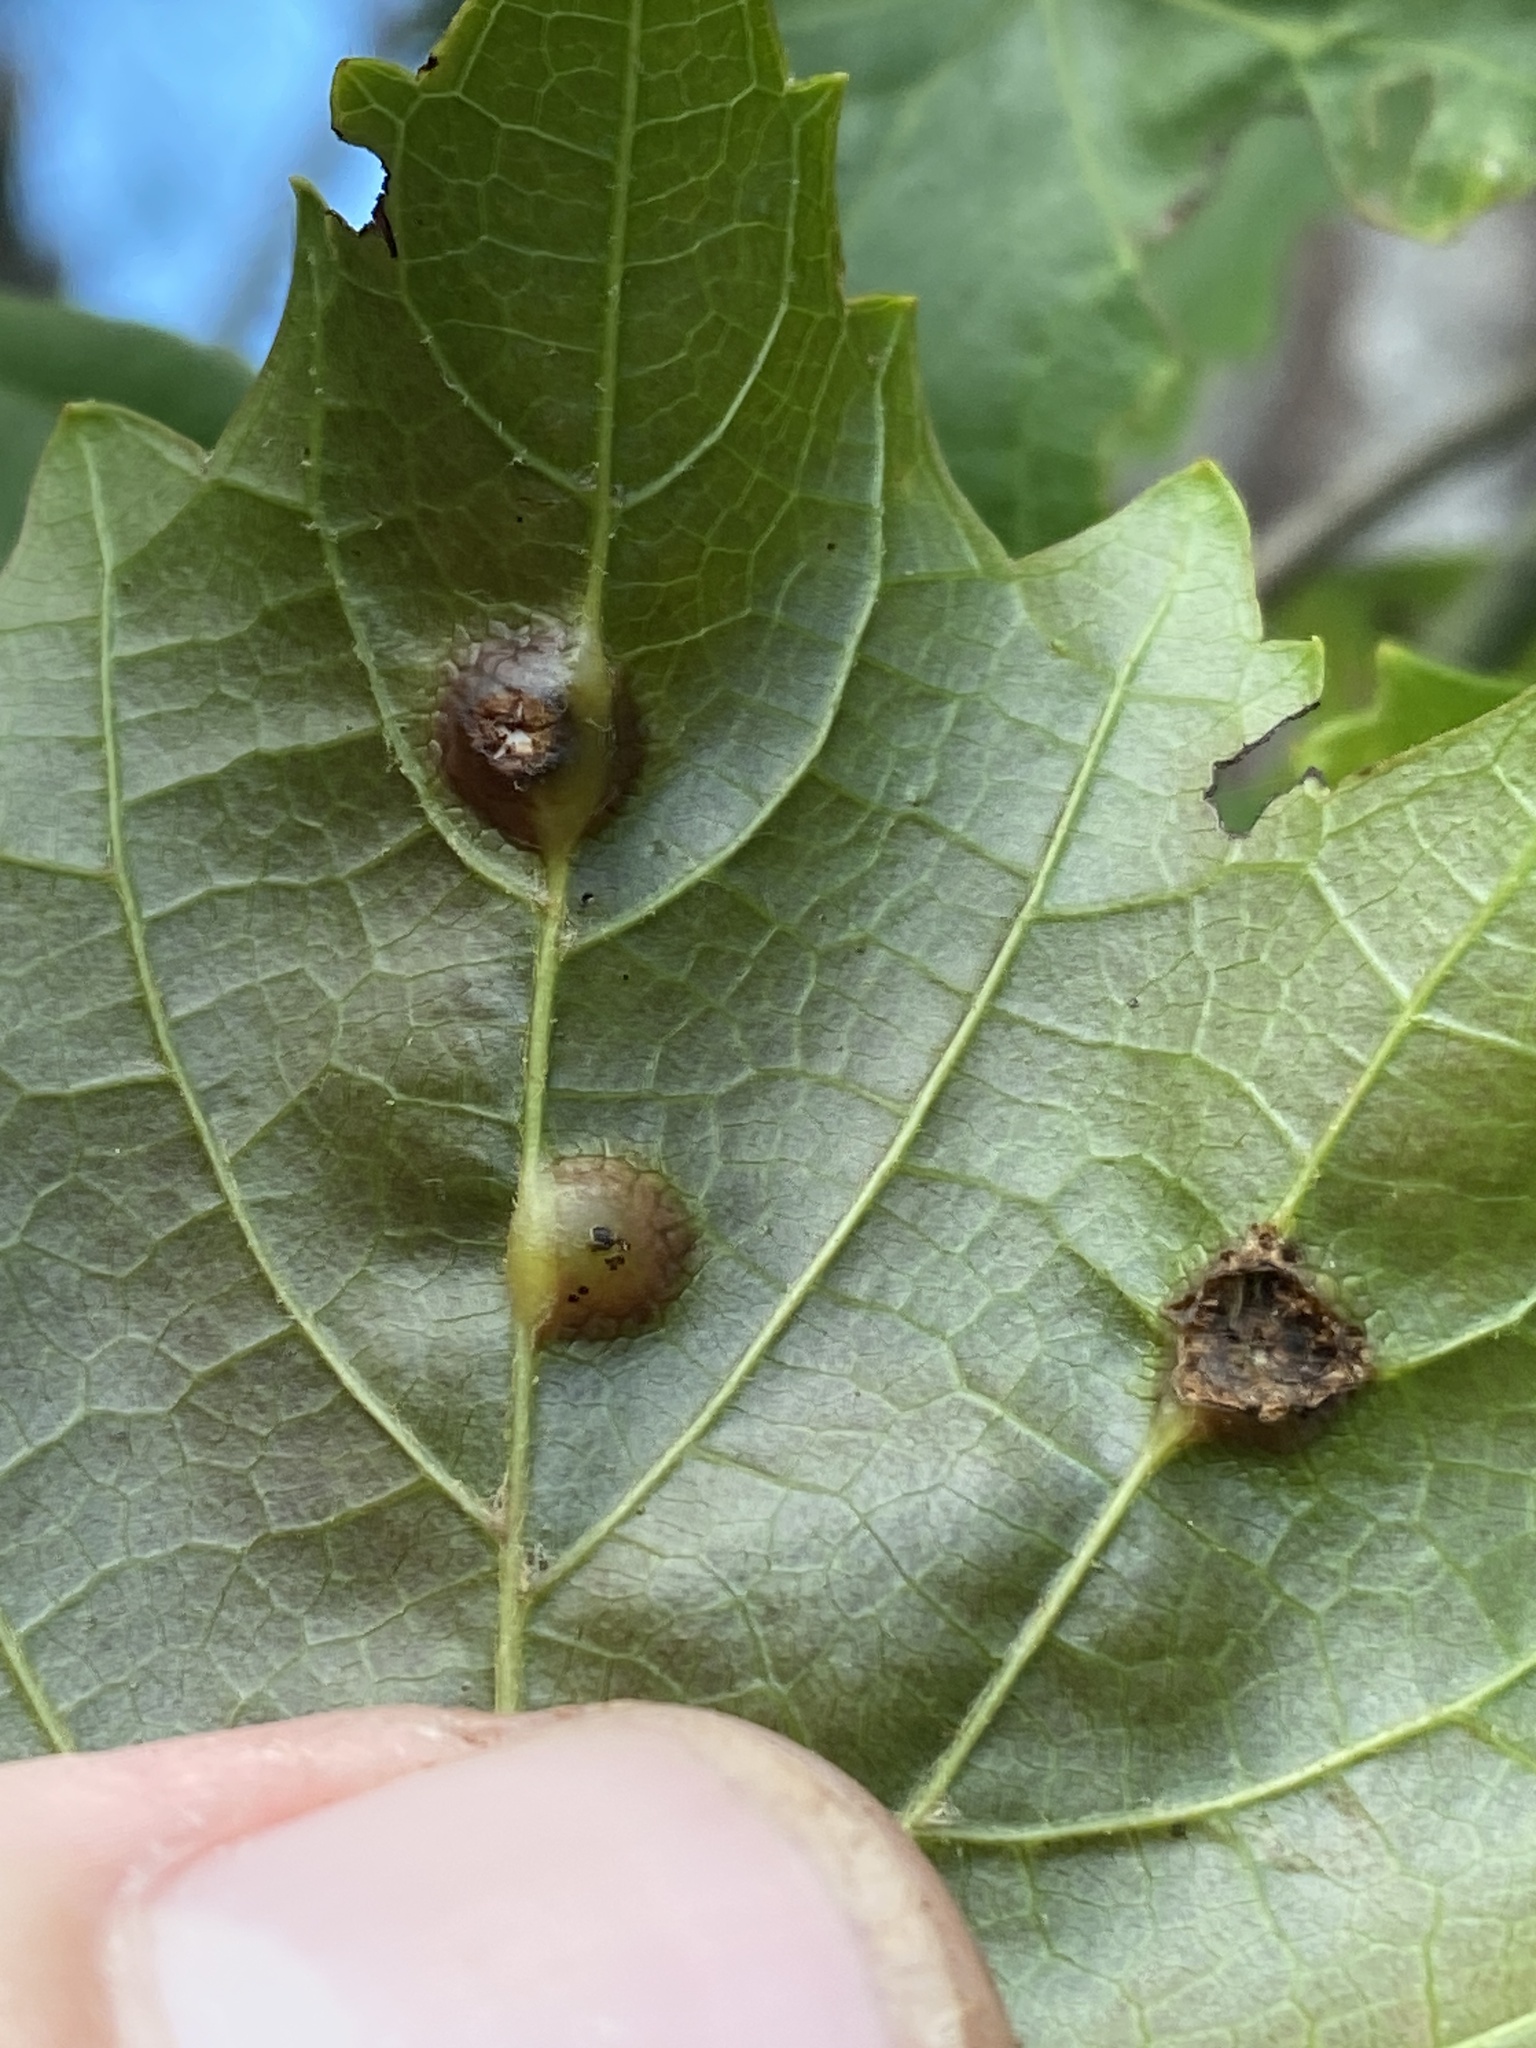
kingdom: Animalia
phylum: Arthropoda
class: Insecta
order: Diptera
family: Cecidomyiidae
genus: Vitisiella
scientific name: Vitisiella brevicauda
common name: Grape tumid gallmaker midge
